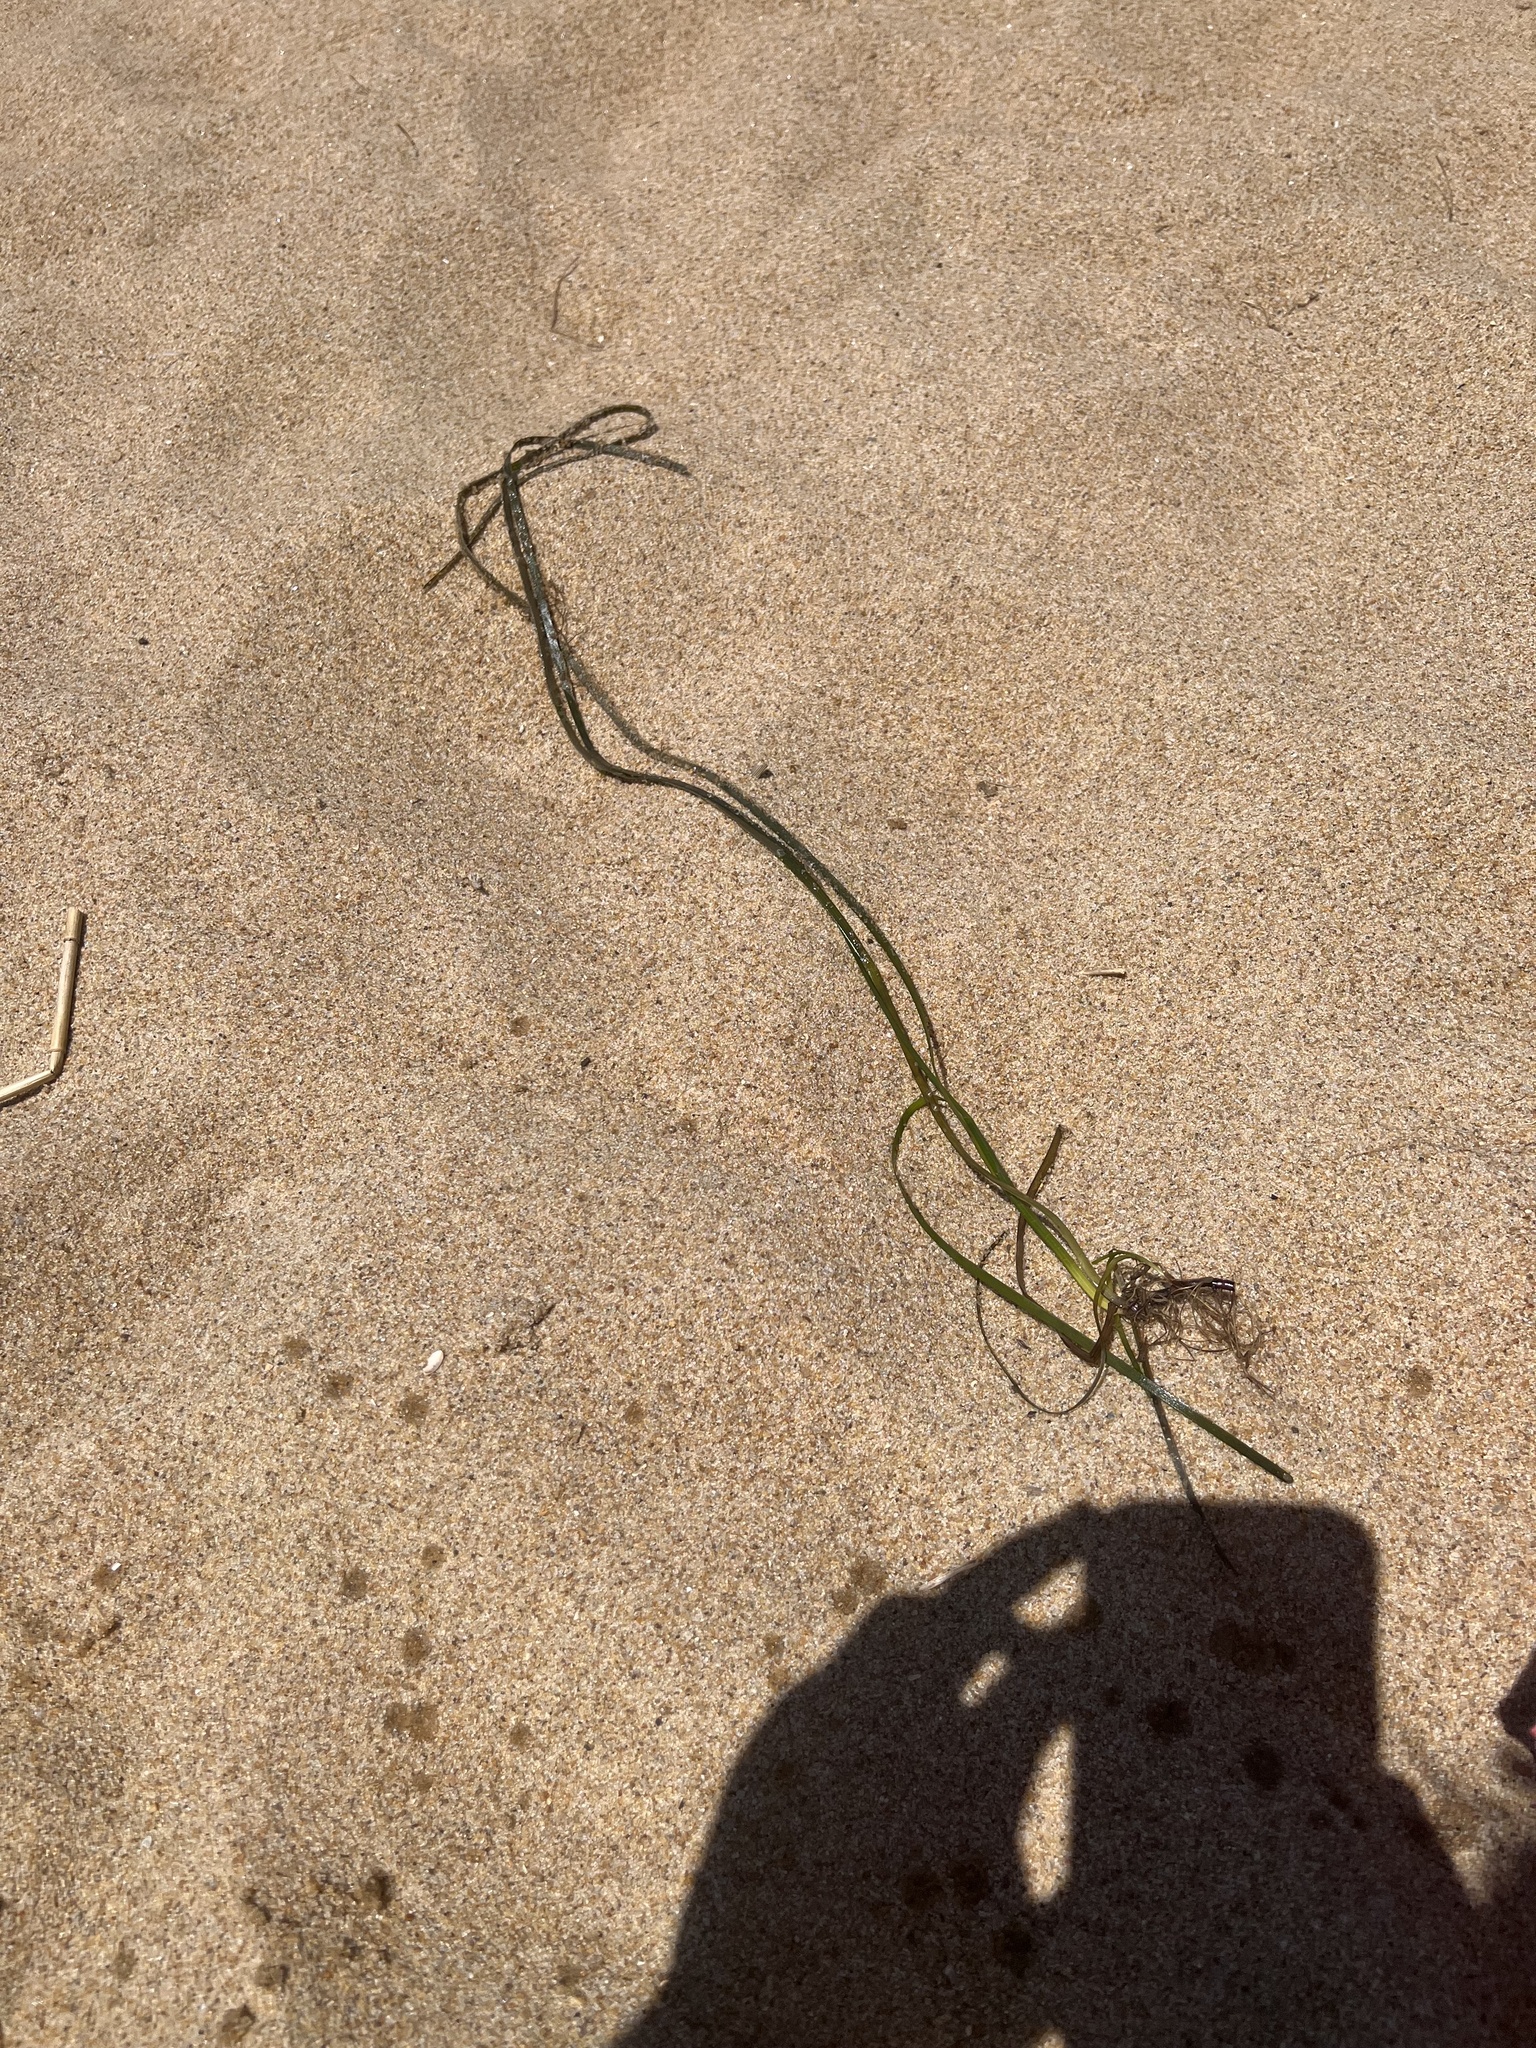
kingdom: Plantae
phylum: Tracheophyta
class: Liliopsida
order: Alismatales
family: Zosteraceae
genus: Zostera
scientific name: Zostera marina
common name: Eelgrass
